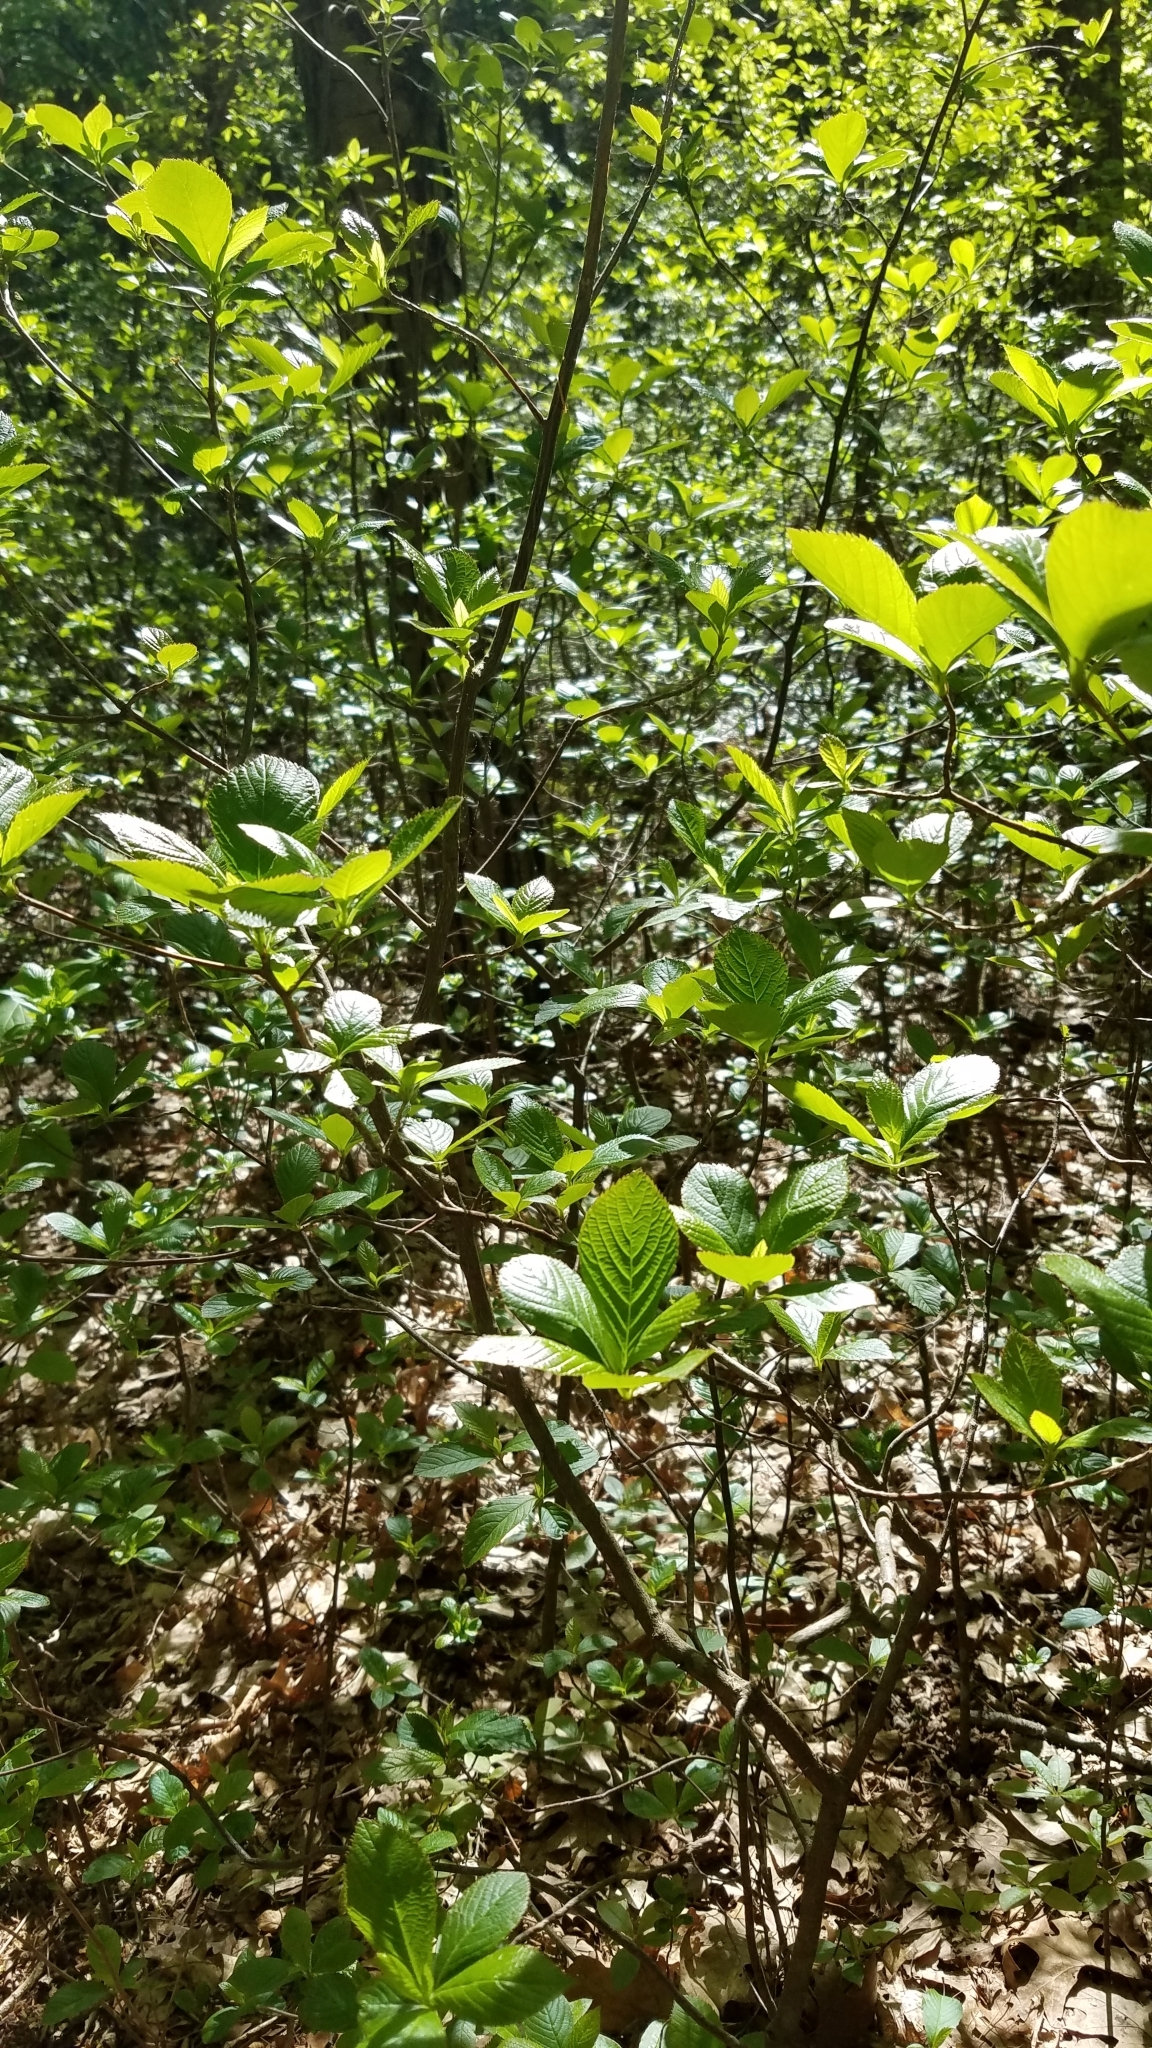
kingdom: Plantae
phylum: Tracheophyta
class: Magnoliopsida
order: Ericales
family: Clethraceae
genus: Clethra
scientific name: Clethra alnifolia
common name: Sweet pepperbush
